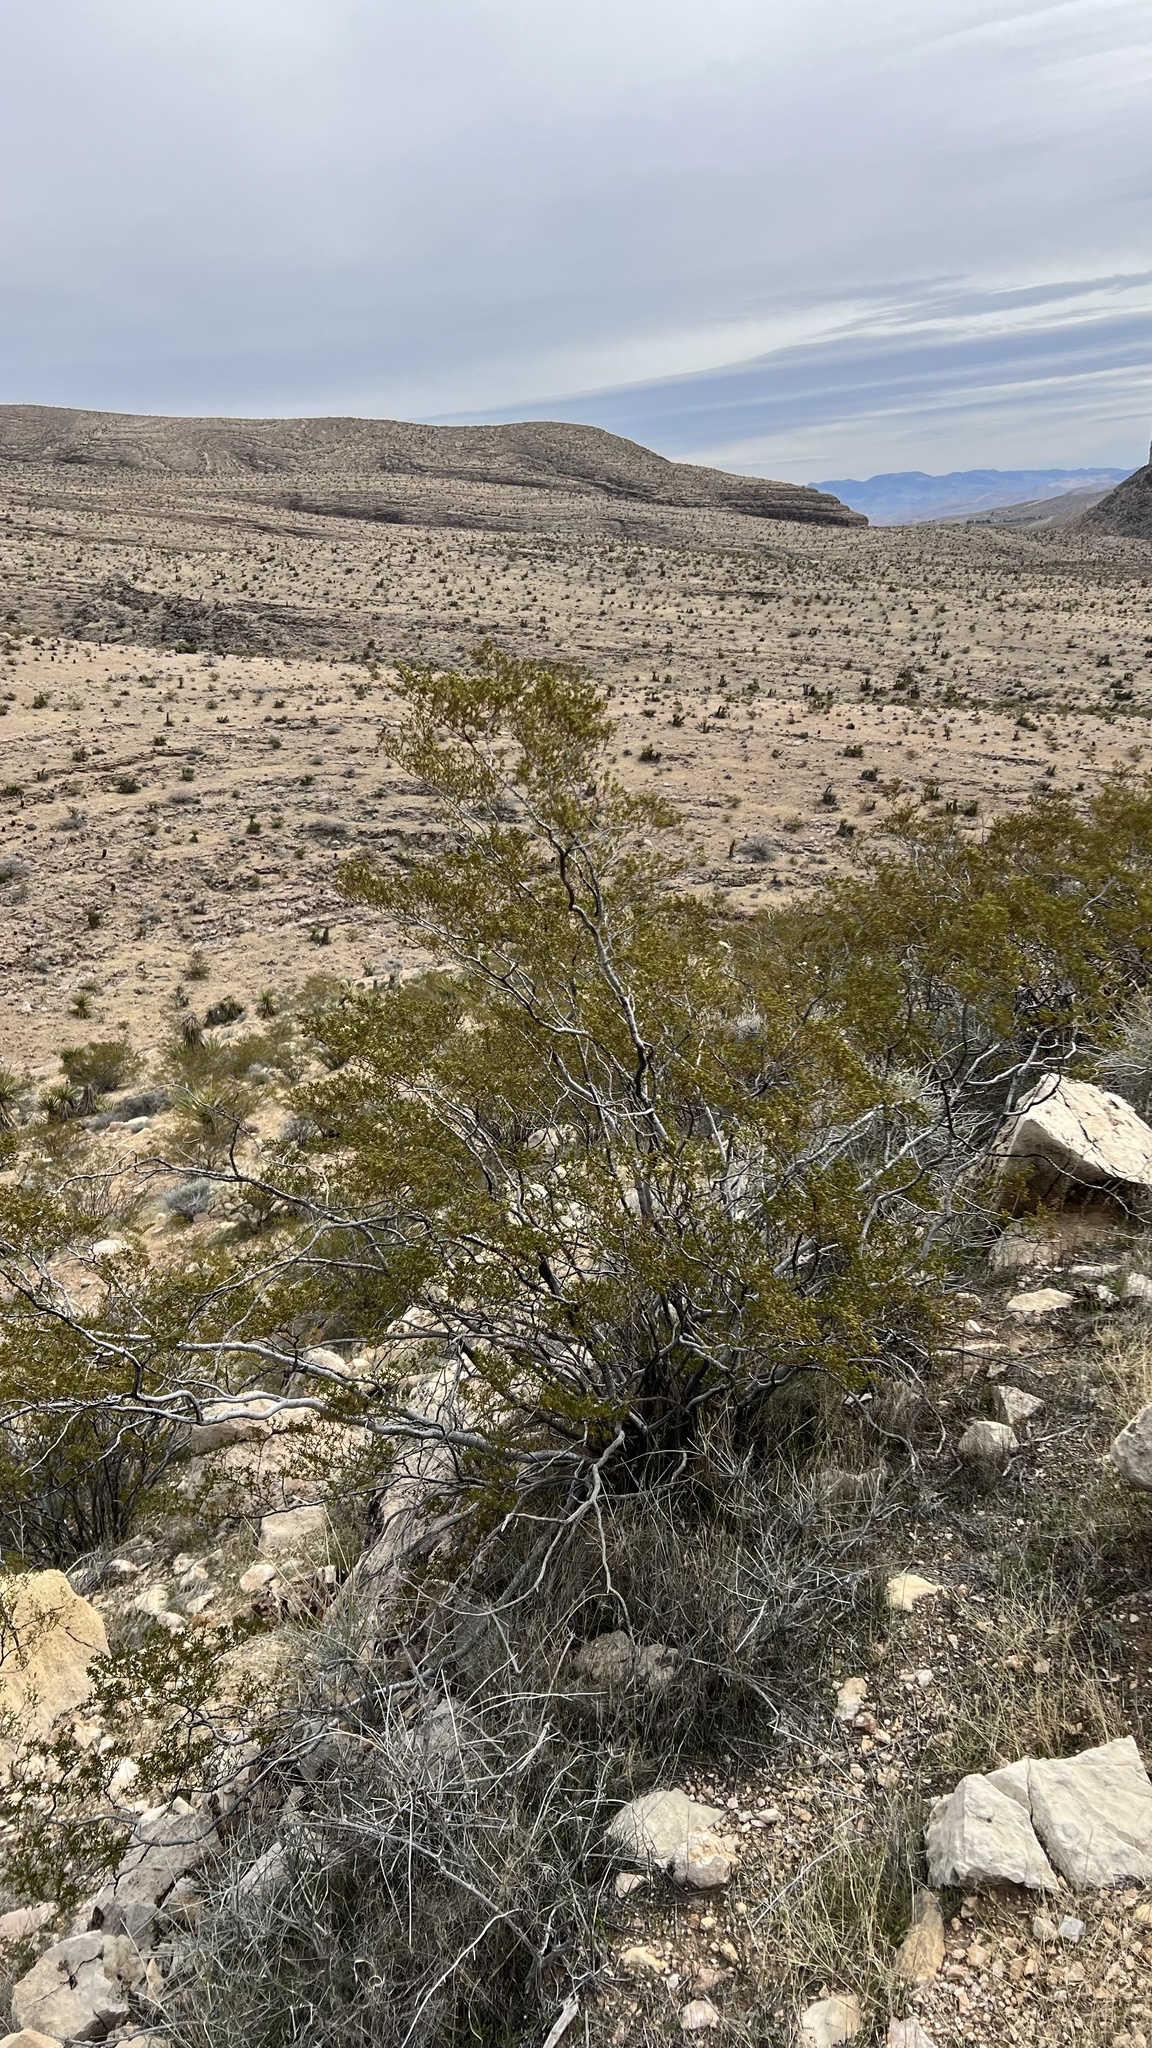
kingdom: Plantae
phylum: Tracheophyta
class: Magnoliopsida
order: Zygophyllales
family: Zygophyllaceae
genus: Larrea
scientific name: Larrea tridentata
